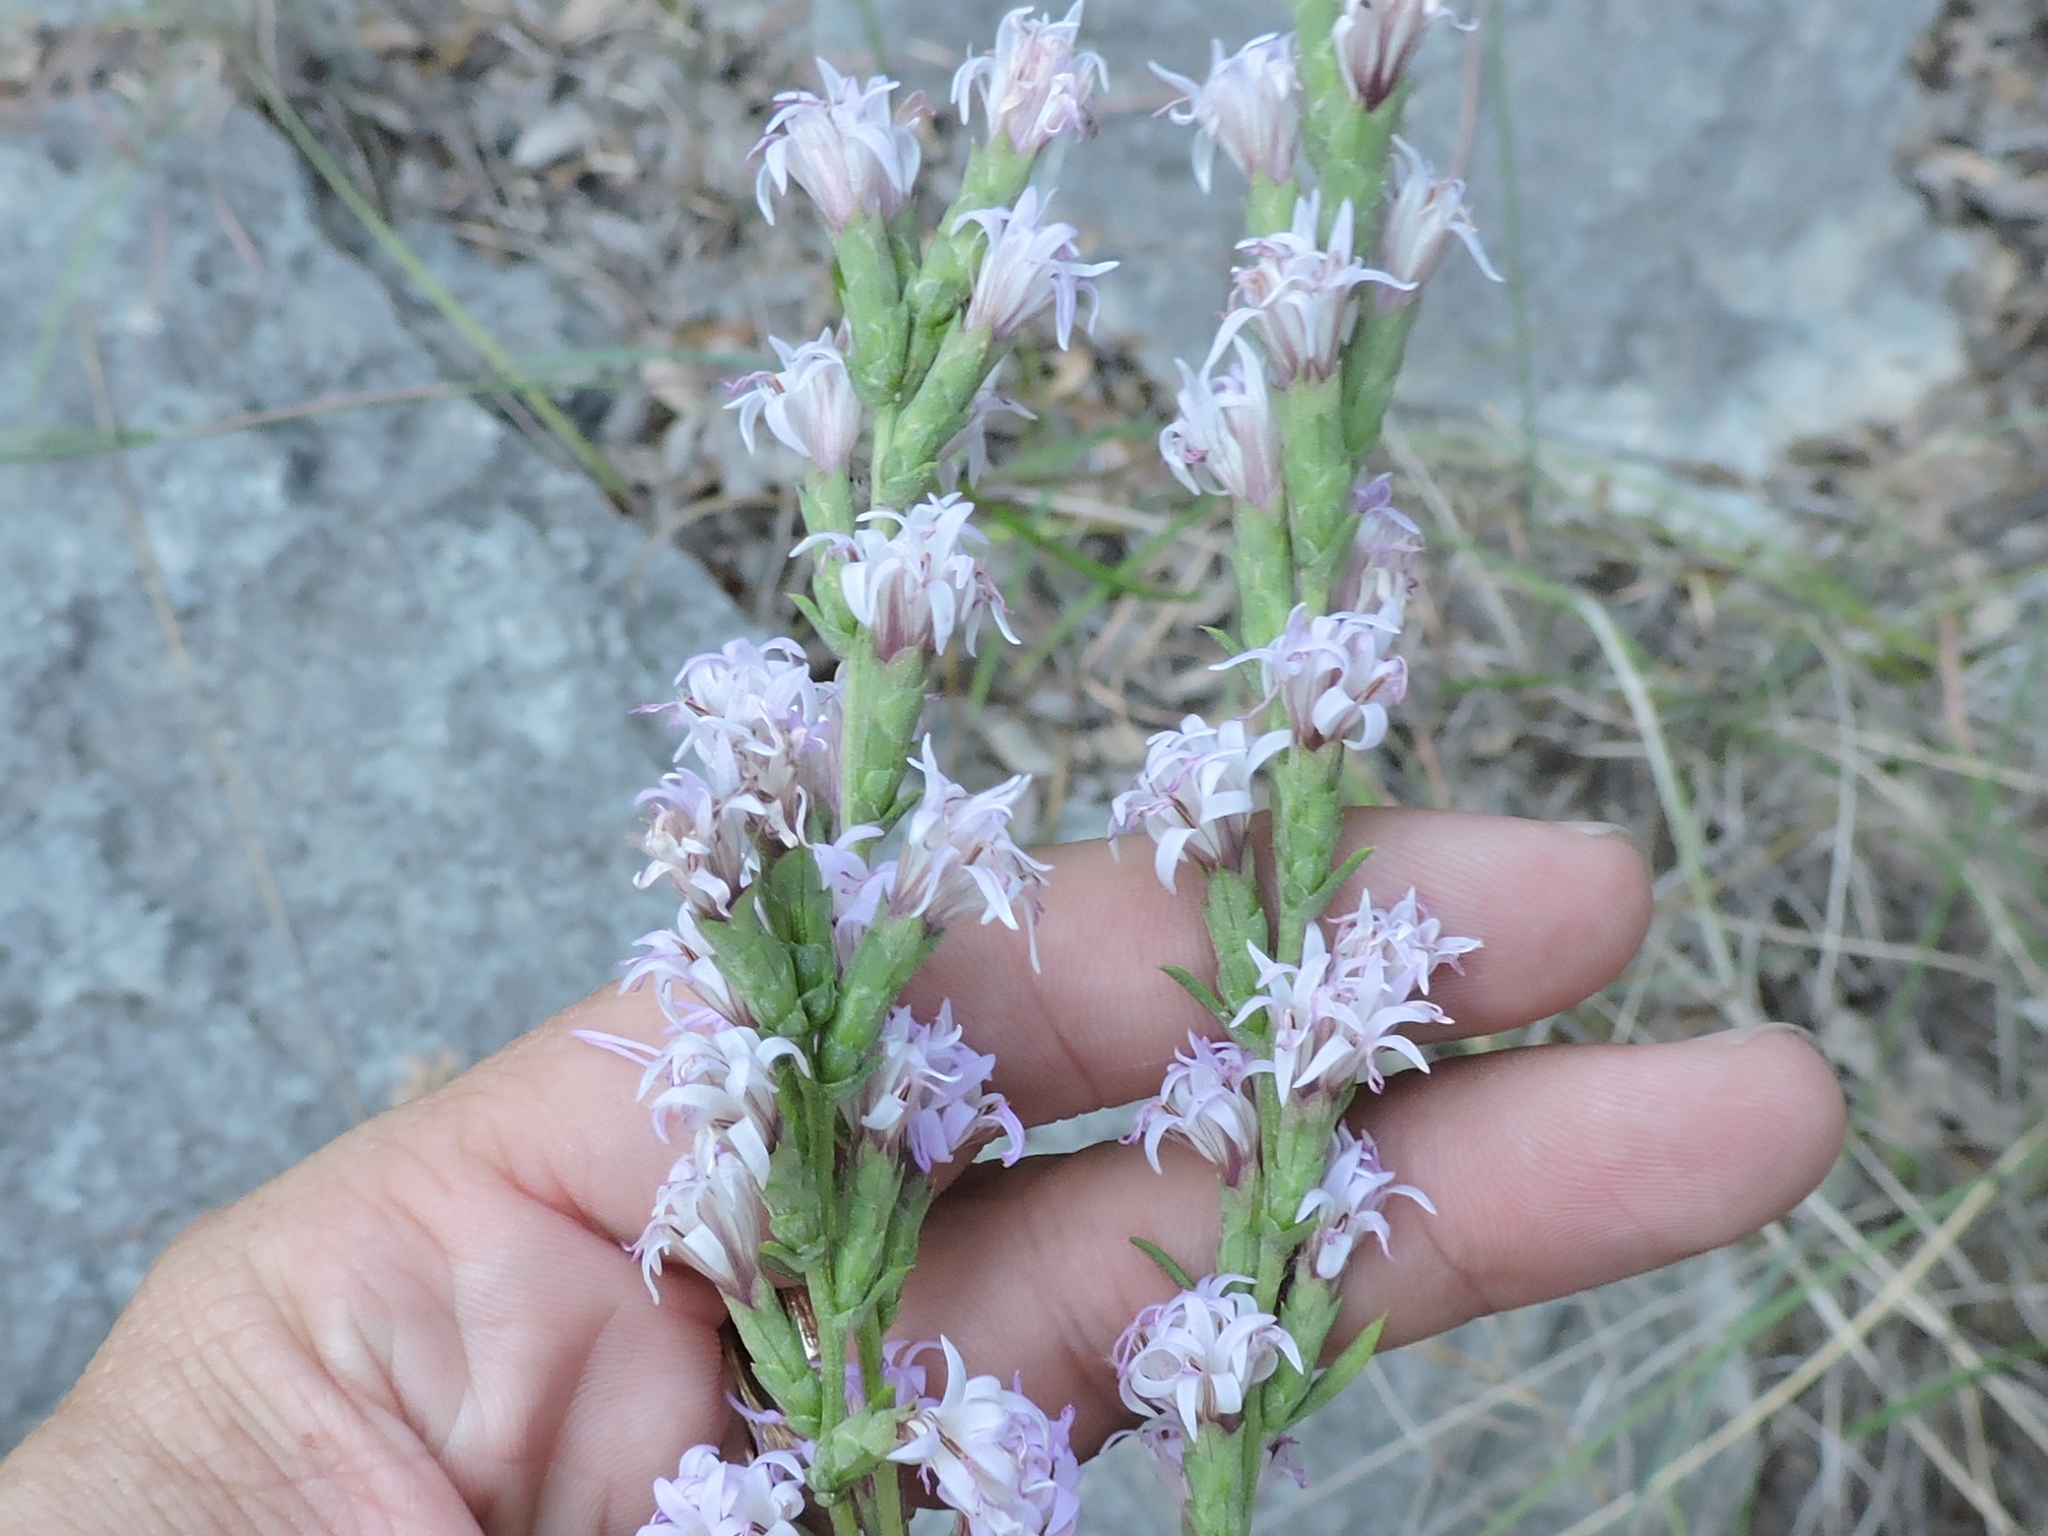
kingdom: Plantae
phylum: Tracheophyta
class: Magnoliopsida
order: Asterales
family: Asteraceae
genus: Liatris
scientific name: Liatris punctata
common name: Dotted gayfeather
